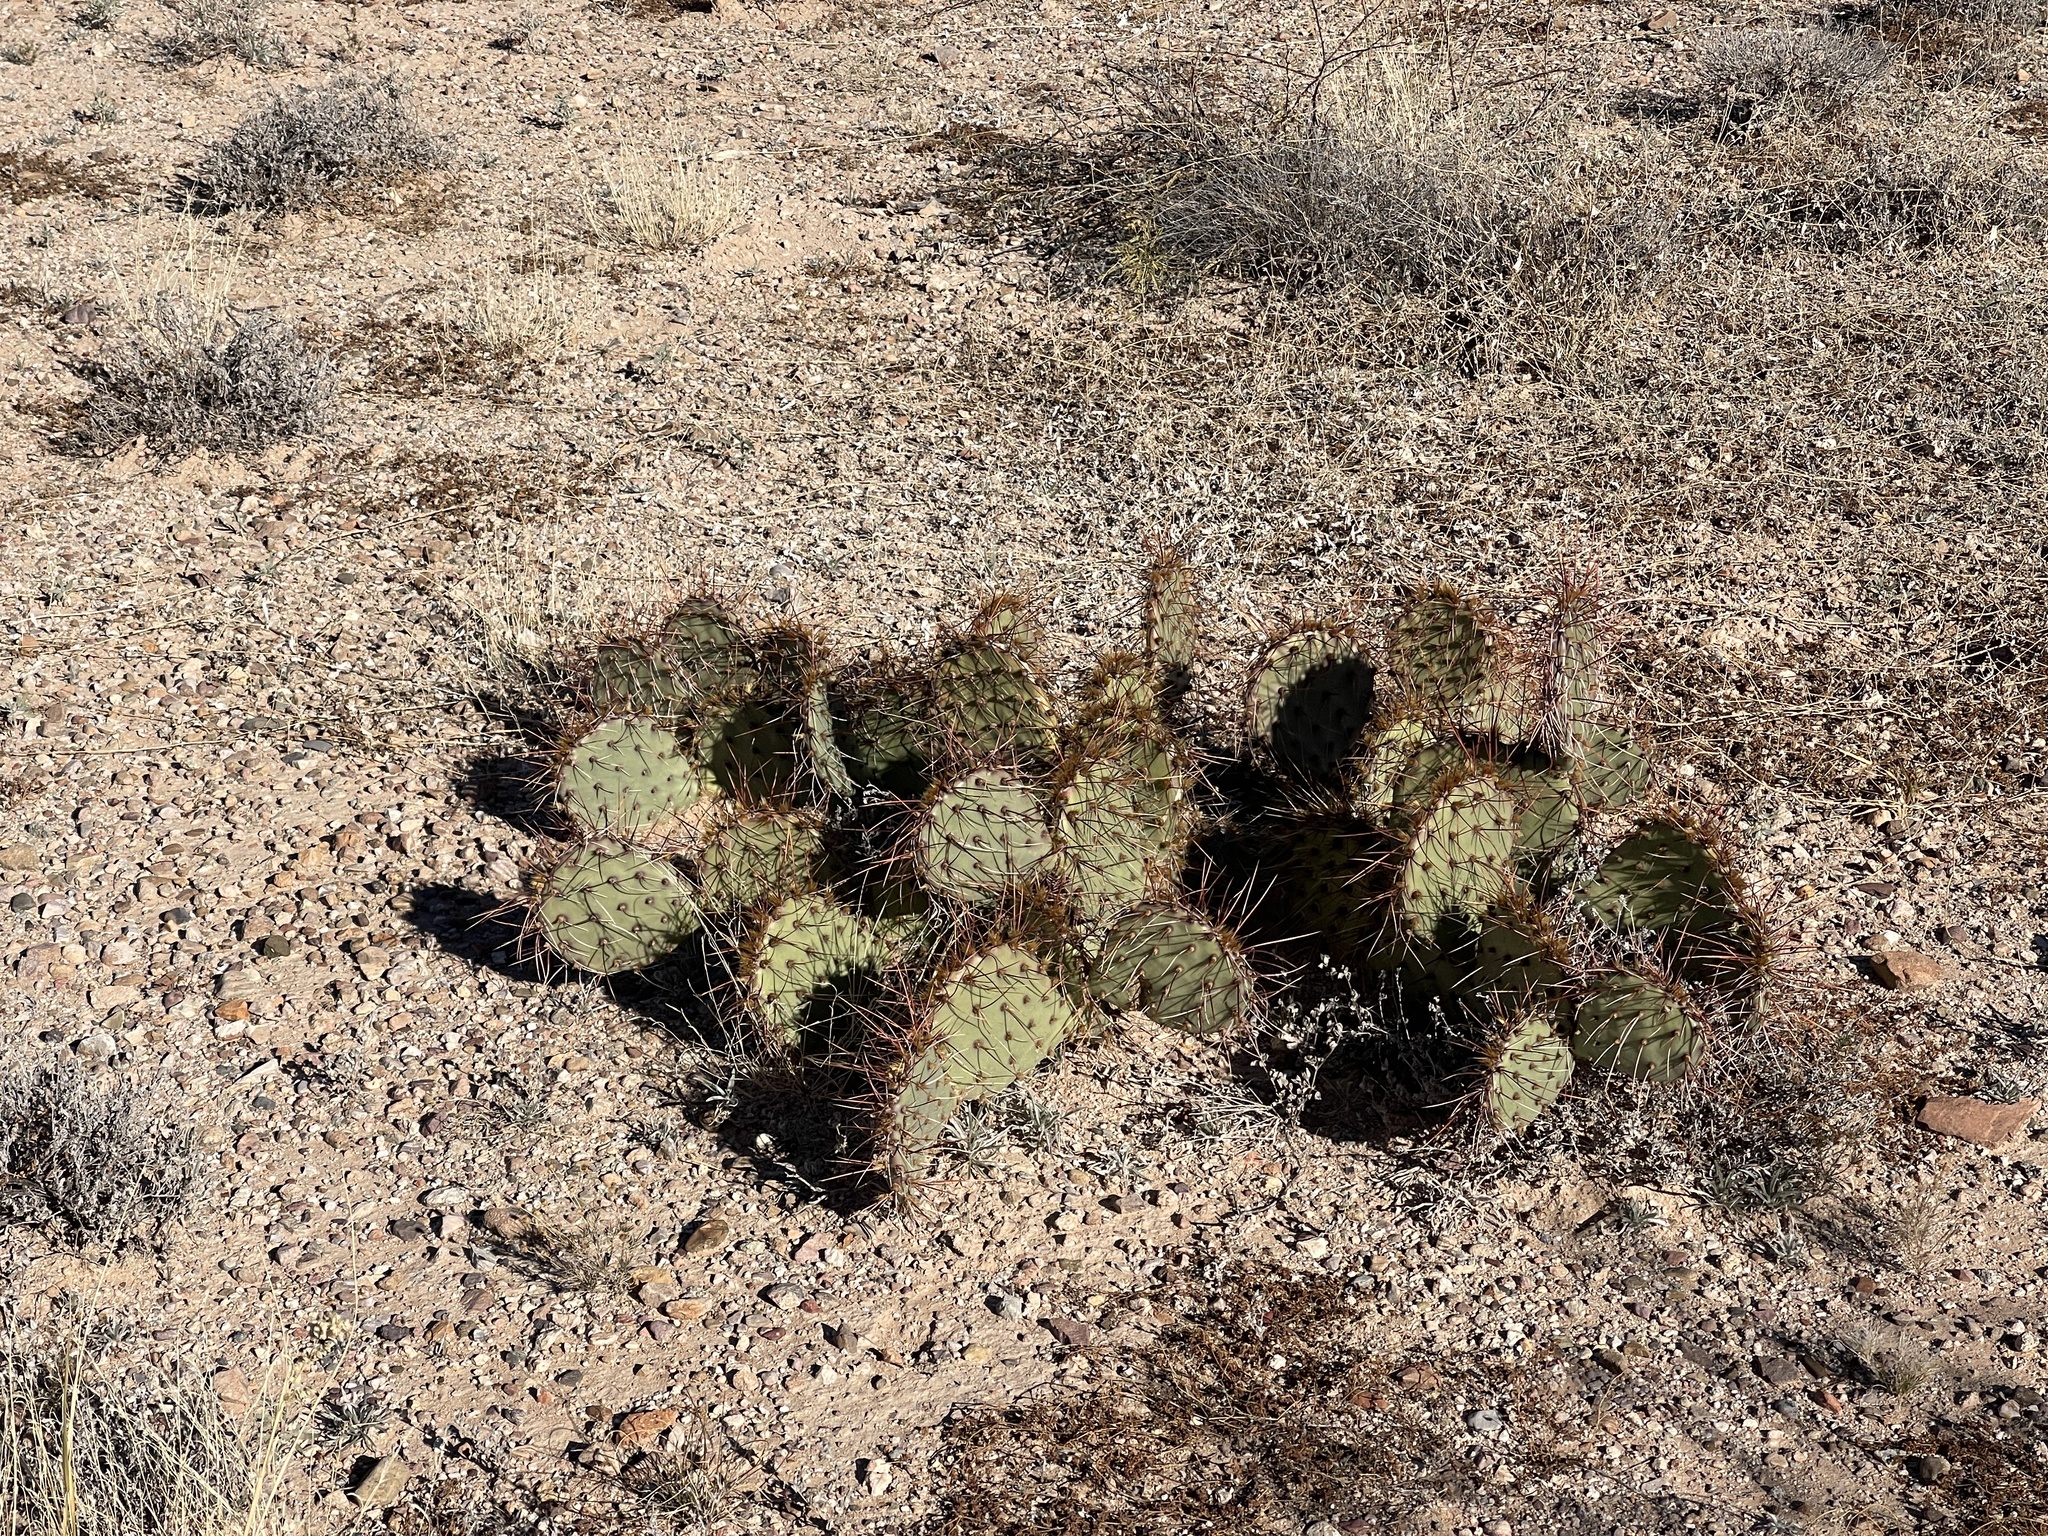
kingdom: Plantae
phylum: Tracheophyta
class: Magnoliopsida
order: Caryophyllales
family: Cactaceae
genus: Opuntia
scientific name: Opuntia phaeacantha
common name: New mexico prickly-pear
